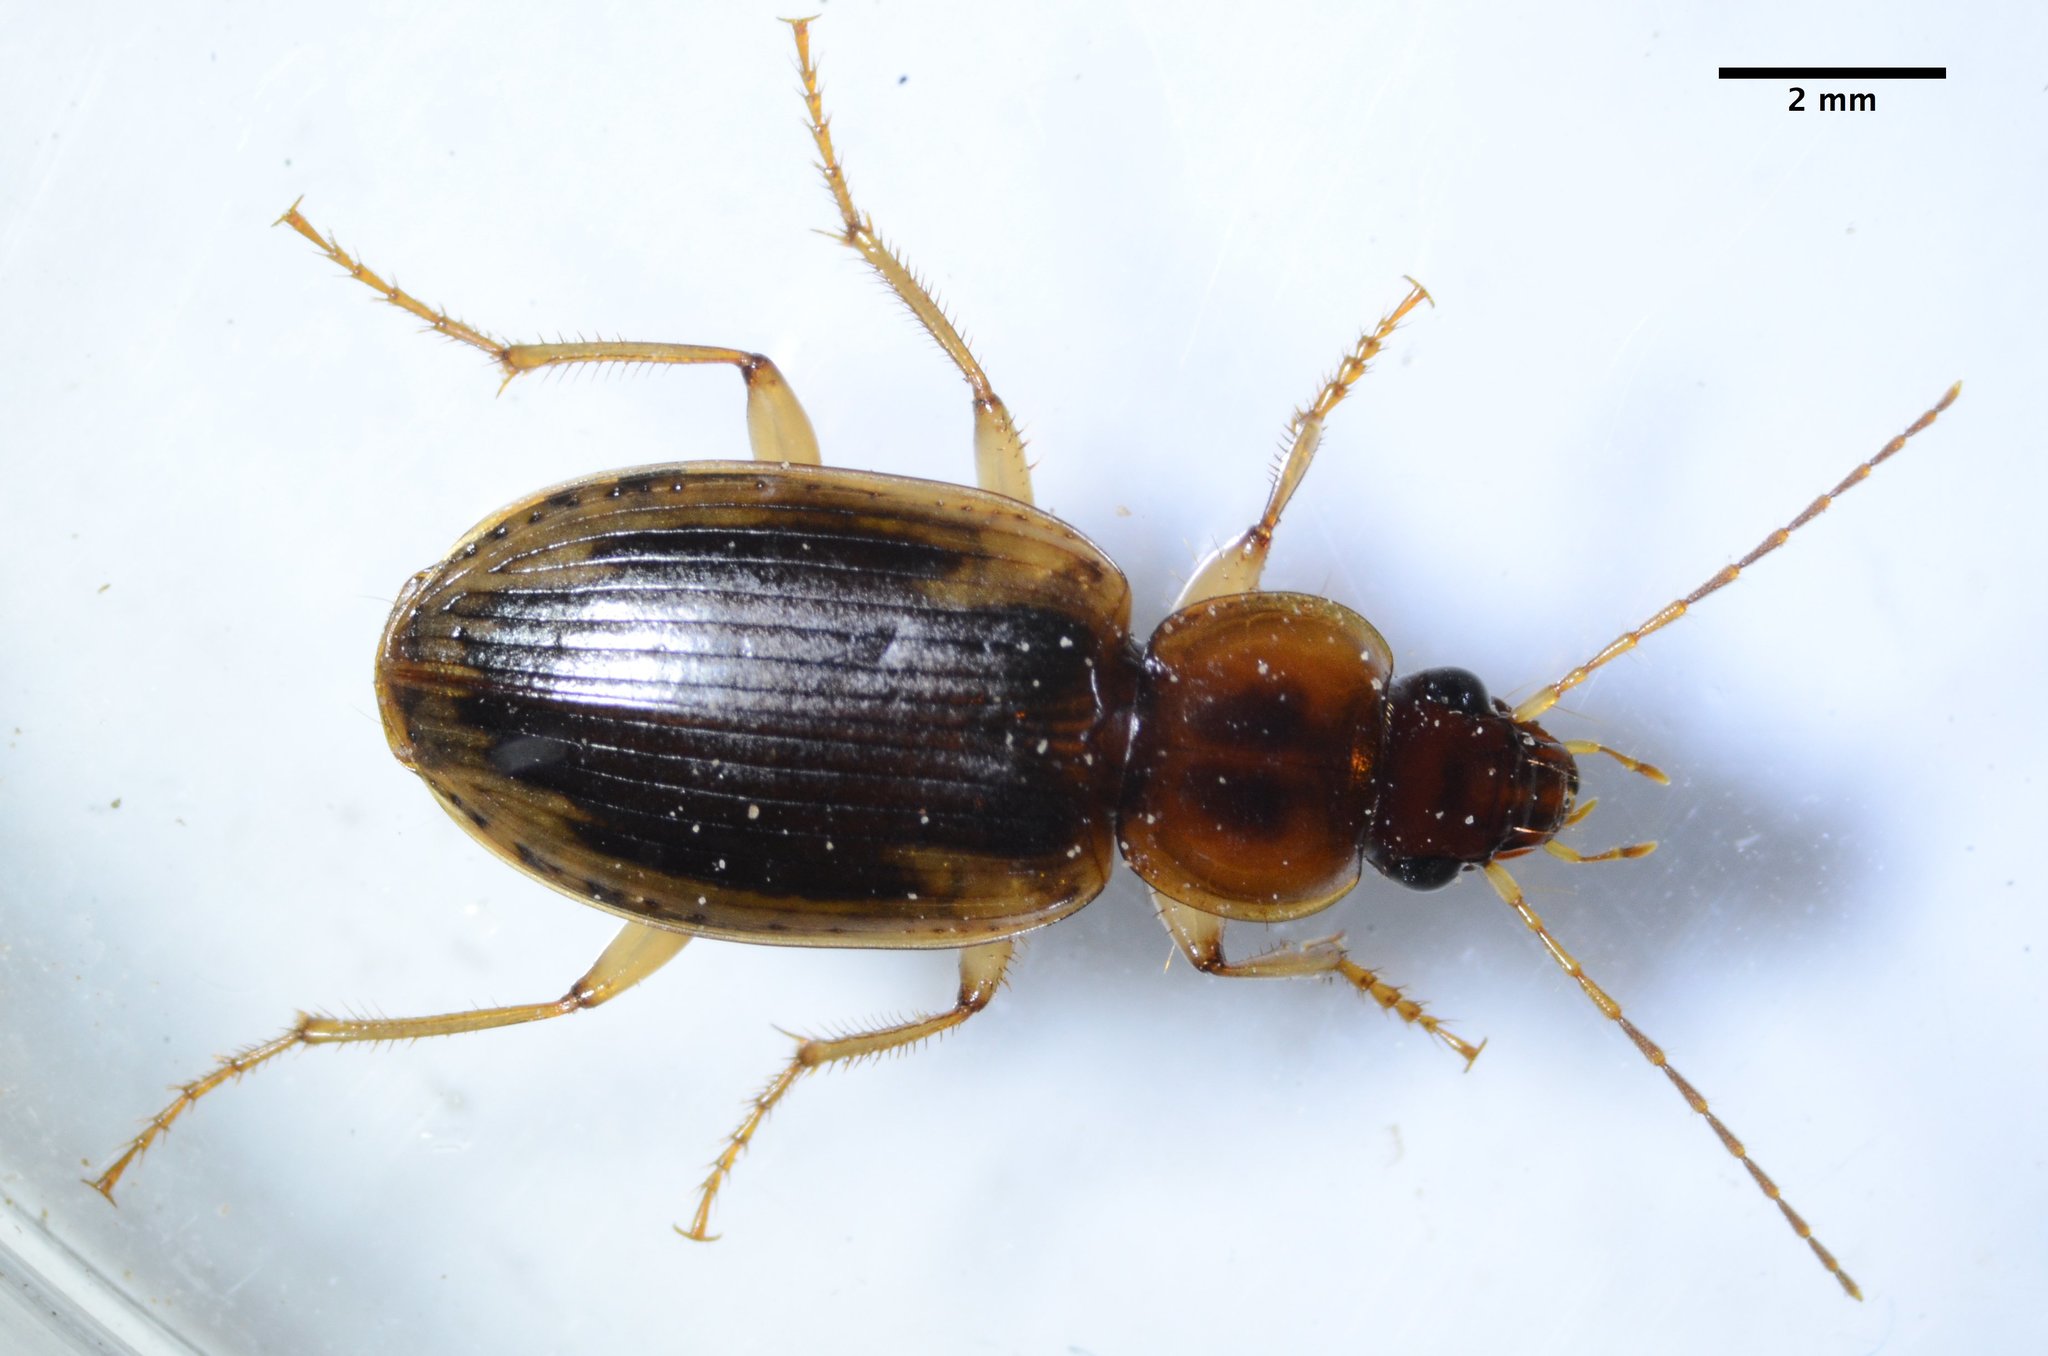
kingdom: Animalia
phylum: Arthropoda
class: Insecta
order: Coleoptera
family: Carabidae
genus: Tanystoma
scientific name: Tanystoma maculicolle
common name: Tule beetle
